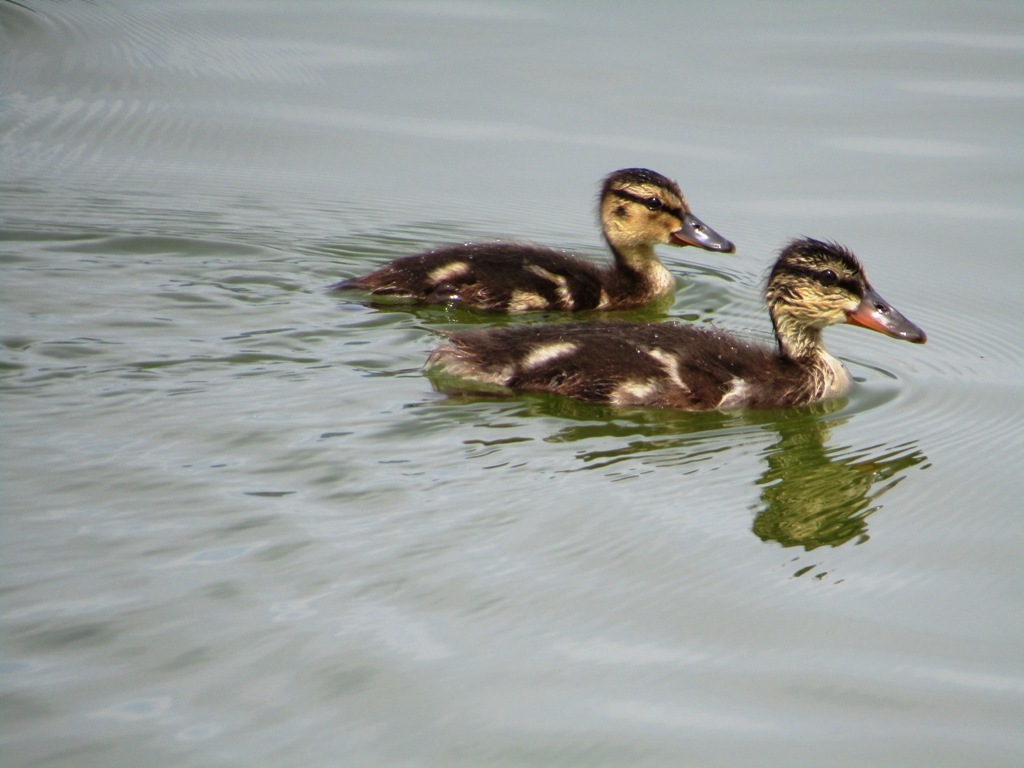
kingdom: Animalia
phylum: Chordata
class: Aves
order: Anseriformes
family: Anatidae
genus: Anas
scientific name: Anas platyrhynchos
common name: Mallard
